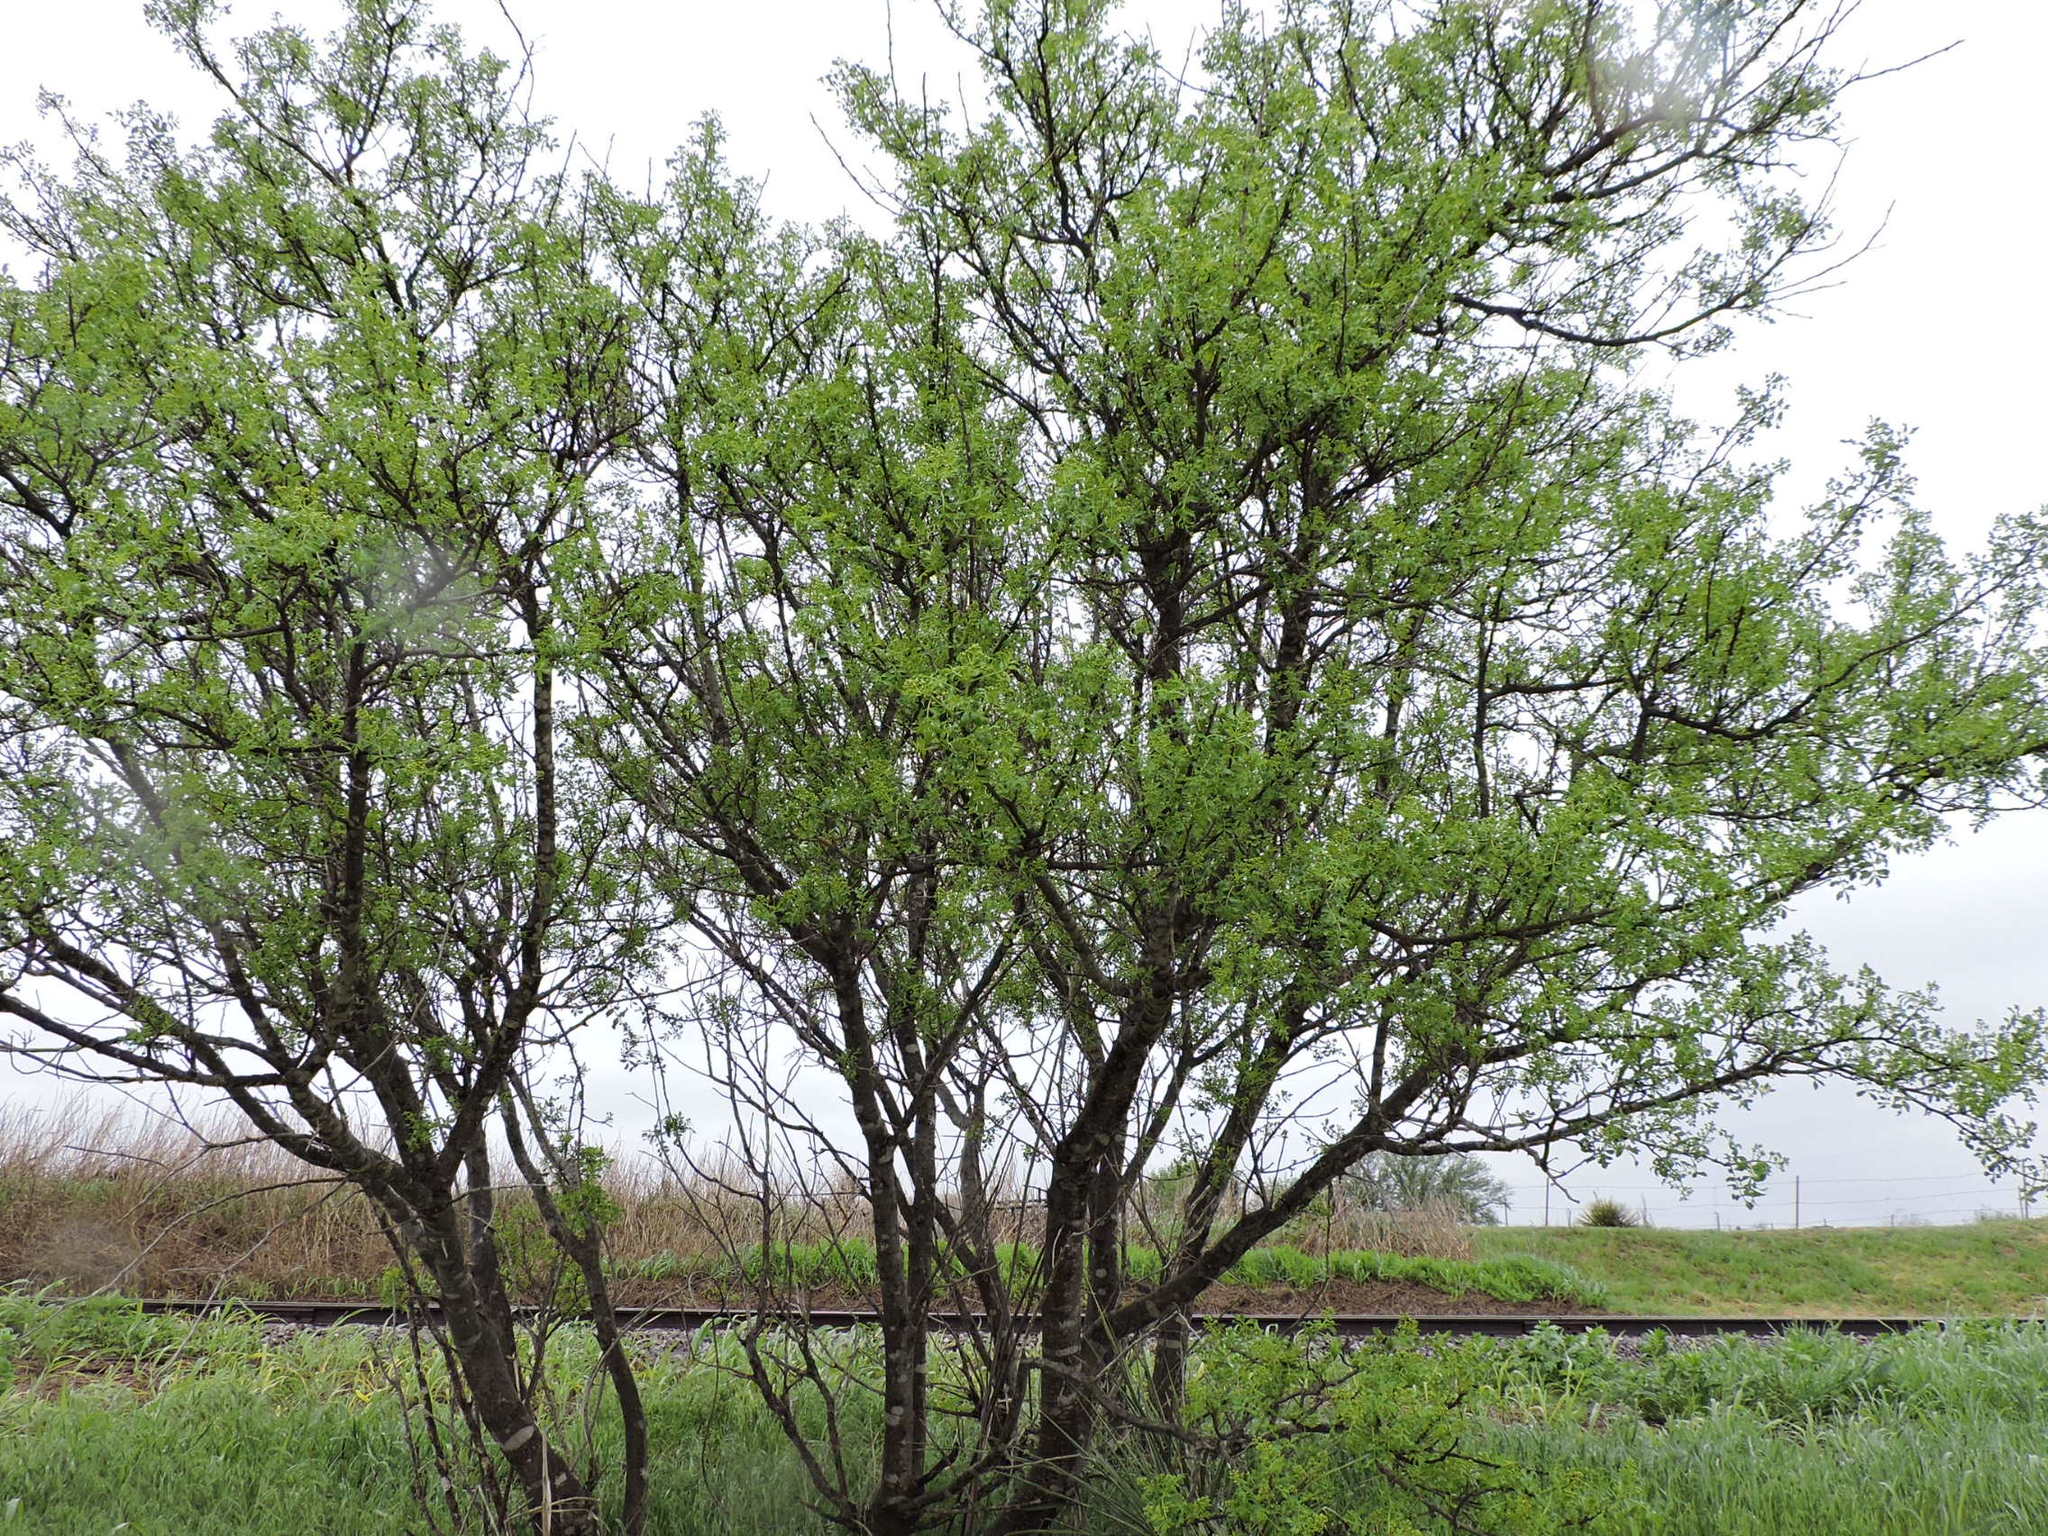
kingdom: Plantae
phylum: Tracheophyta
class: Magnoliopsida
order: Sapindales
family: Rutaceae
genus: Zanthoxylum
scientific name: Zanthoxylum clava-herculis
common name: Hercules'-club
